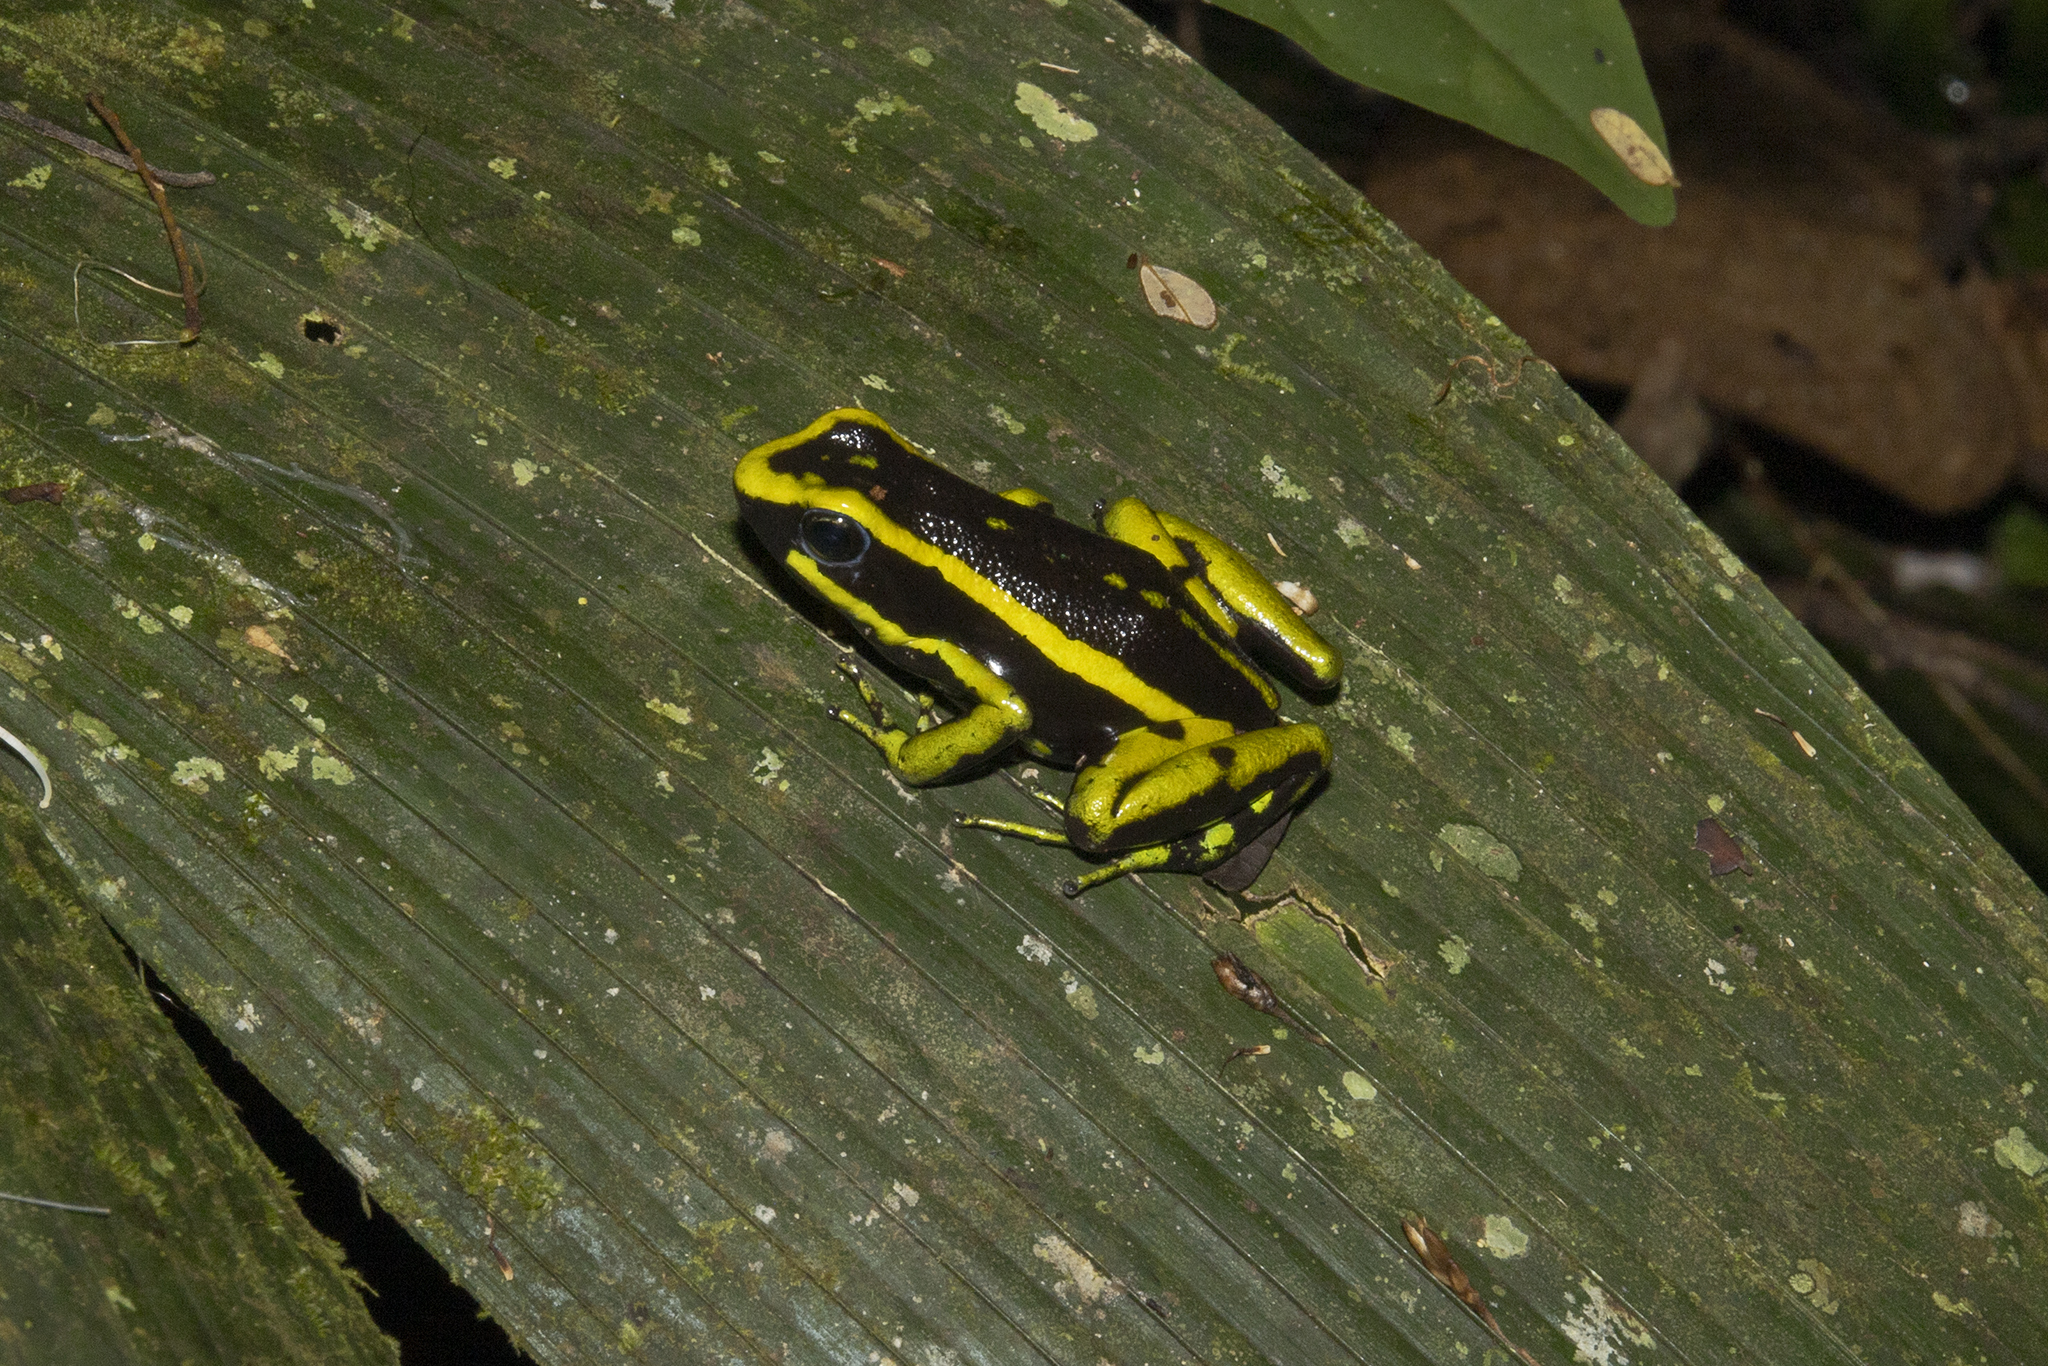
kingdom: Animalia
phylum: Chordata
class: Amphibia
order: Anura
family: Dendrobatidae
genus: Ameerega
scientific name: Ameerega trivittata
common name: Three-striped arrow-poison frog
